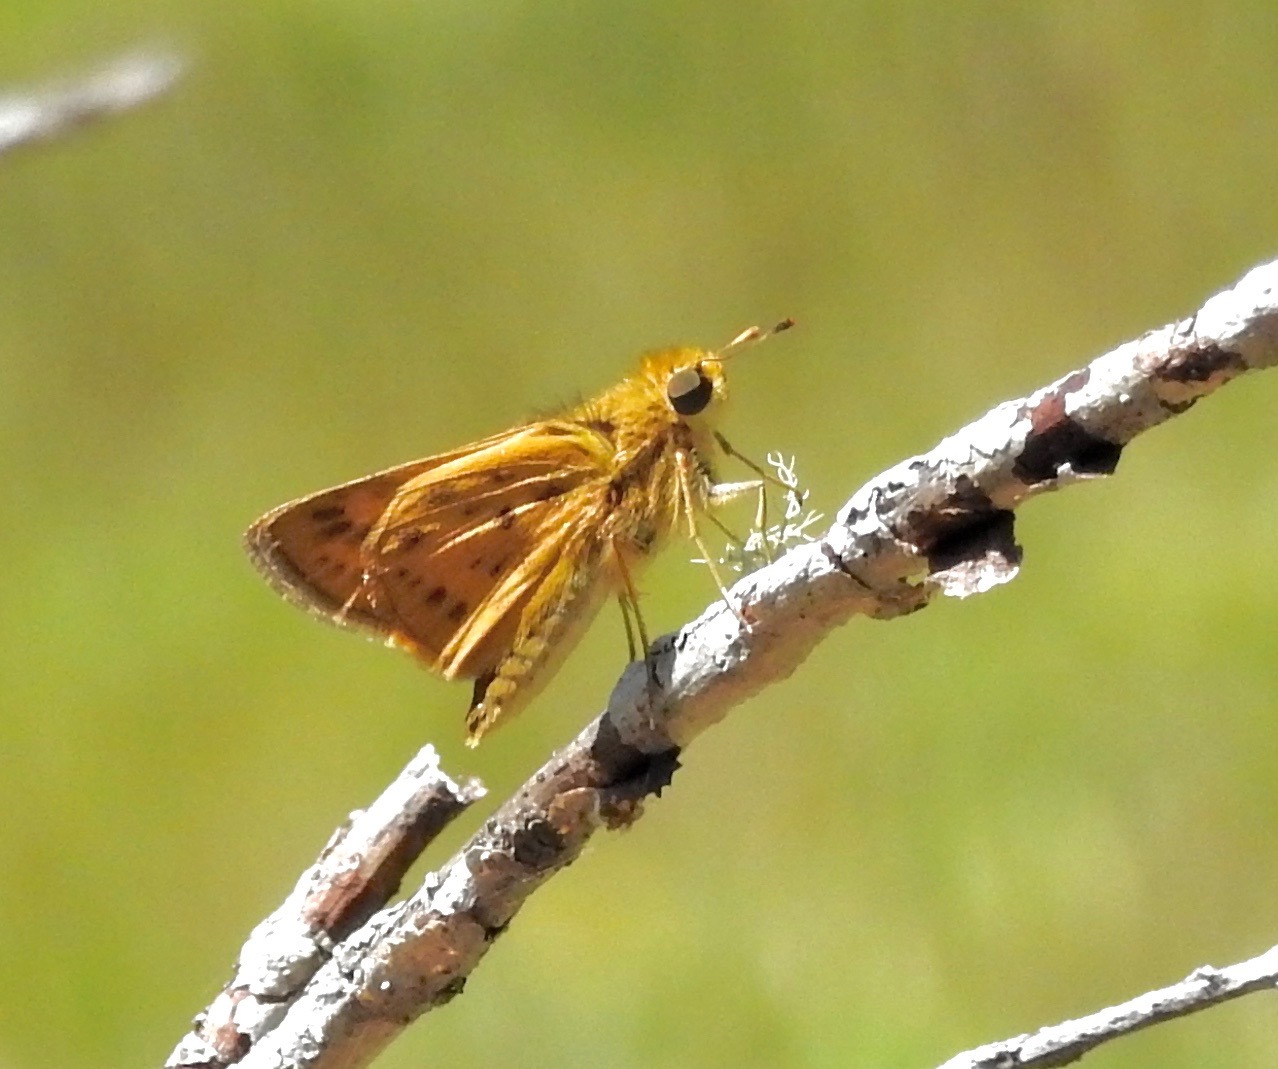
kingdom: Animalia
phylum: Arthropoda
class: Insecta
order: Lepidoptera
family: Hesperiidae
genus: Hylephila
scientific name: Hylephila phyleus
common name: Fiery skipper
